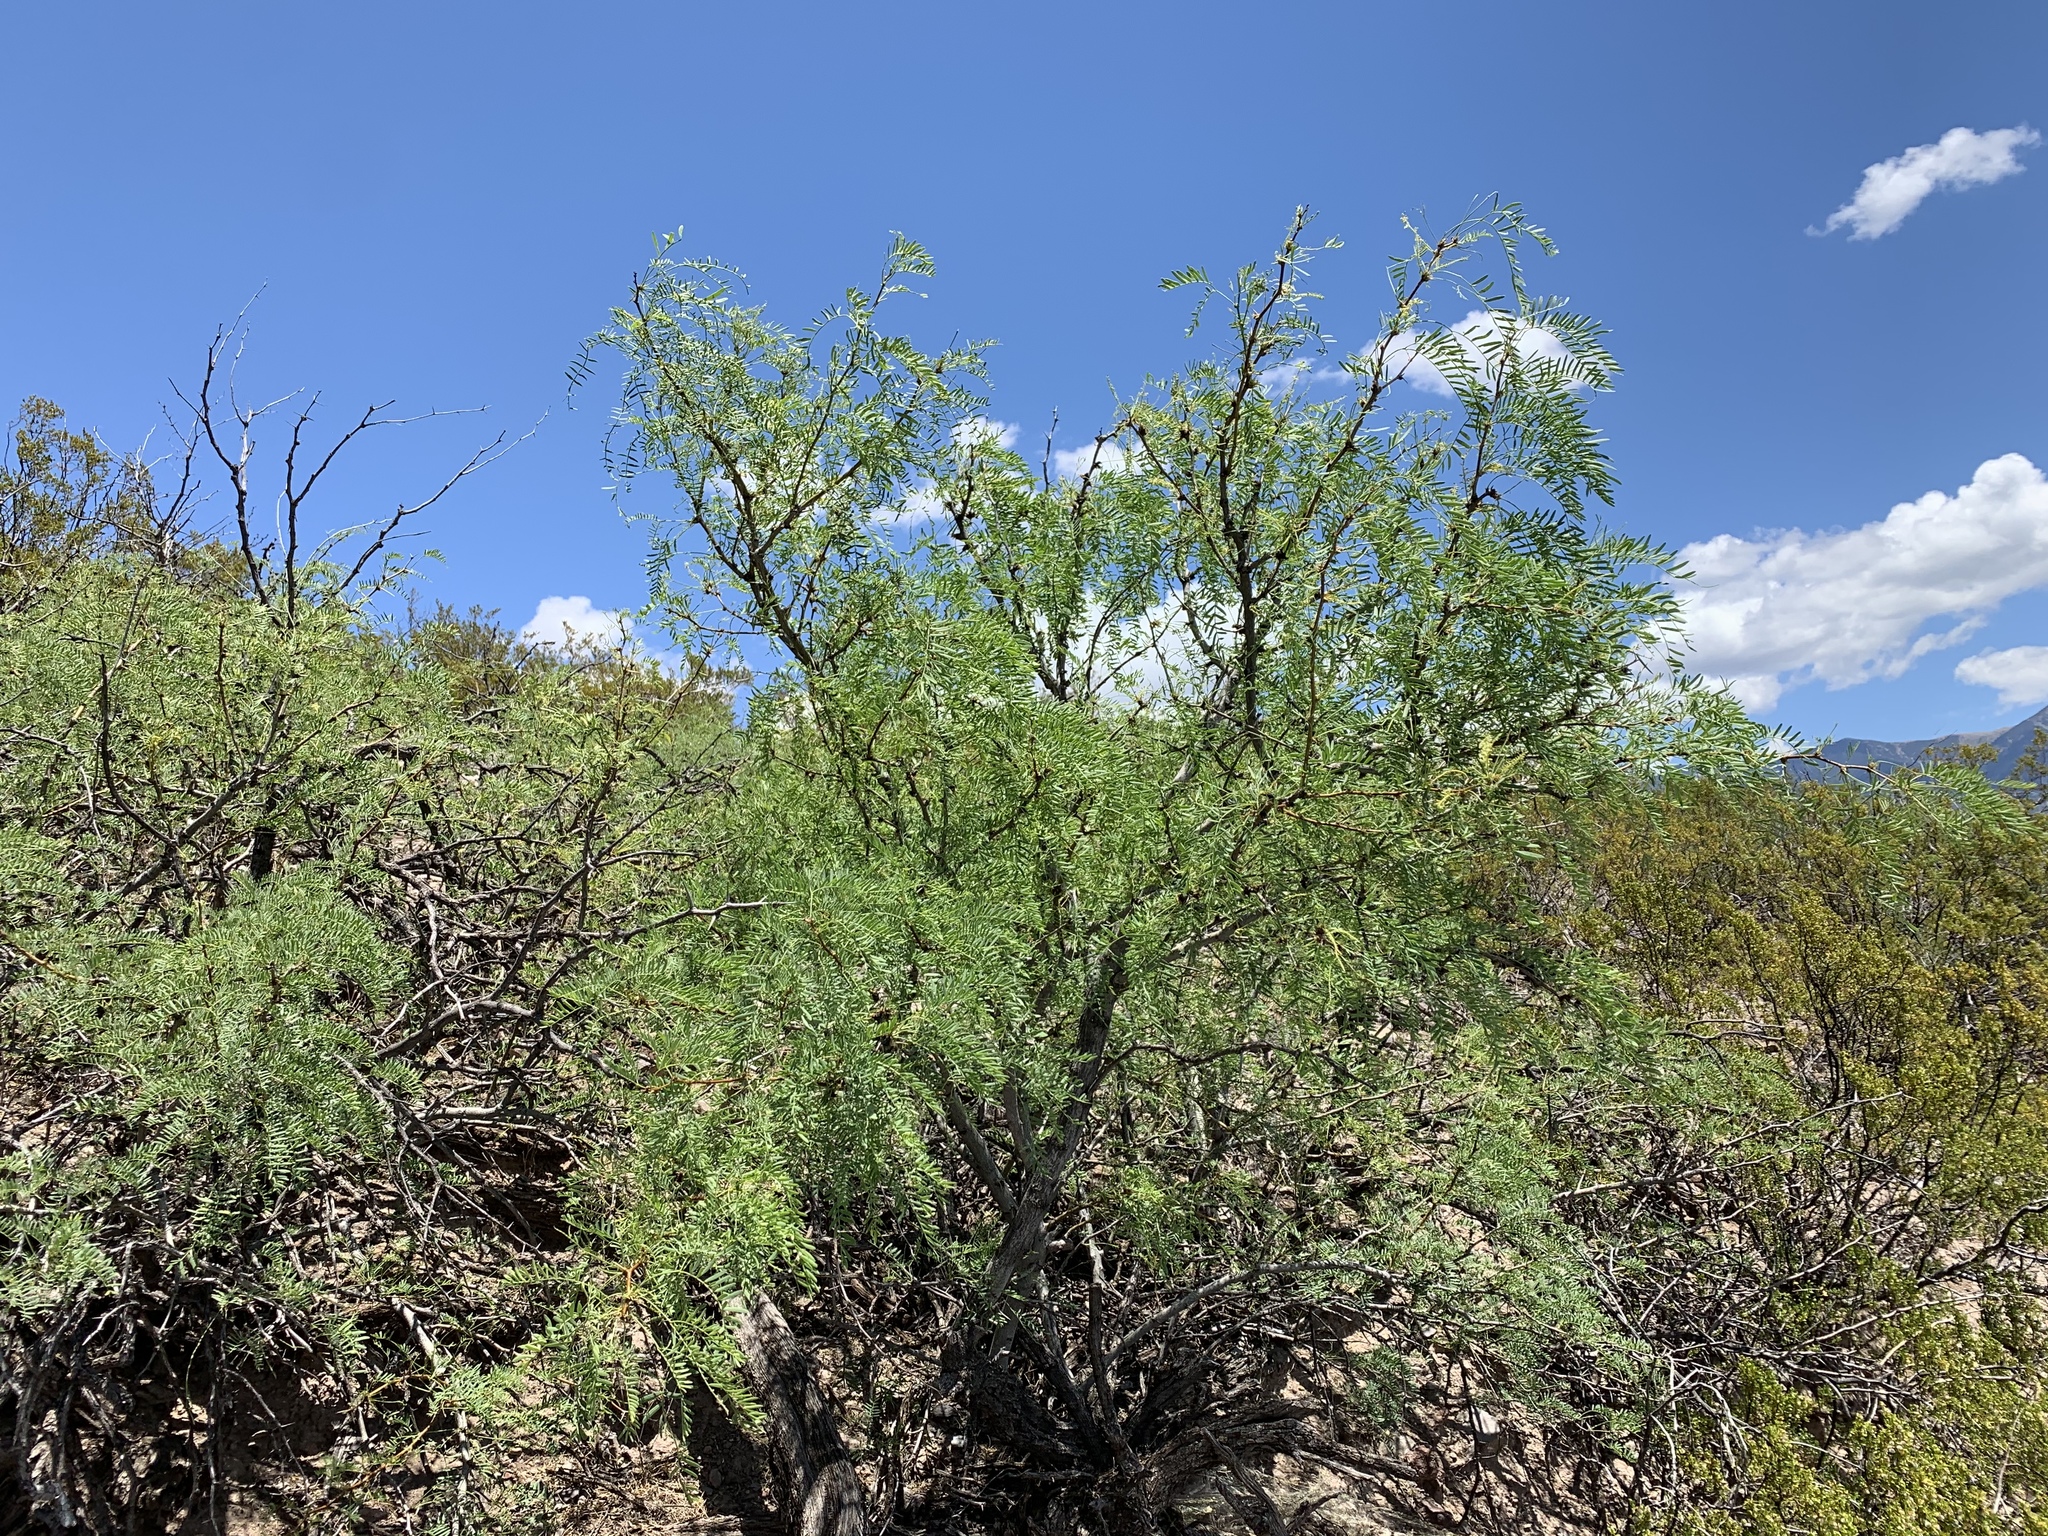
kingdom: Plantae
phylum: Tracheophyta
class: Magnoliopsida
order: Fabales
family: Fabaceae
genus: Prosopis
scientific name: Prosopis glandulosa
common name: Honey mesquite
